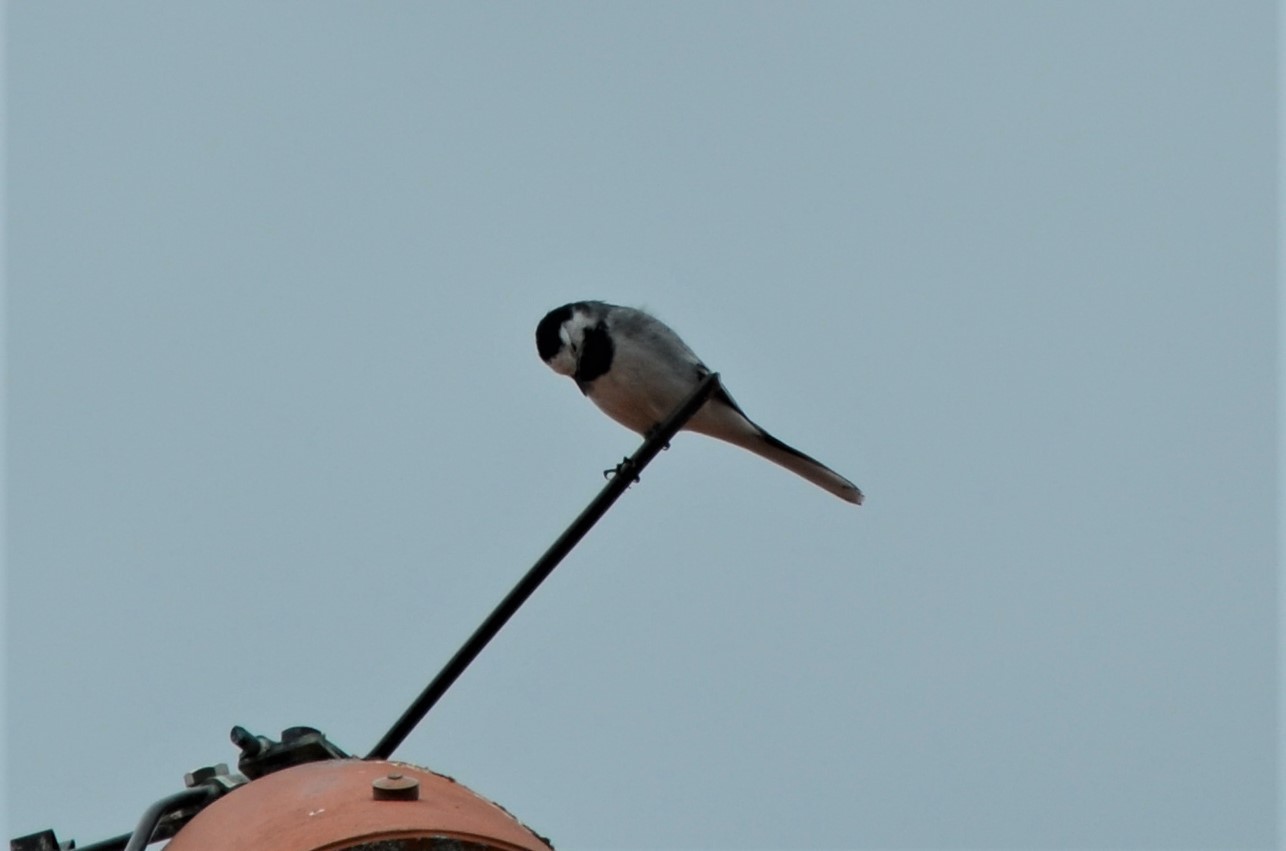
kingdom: Animalia
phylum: Chordata
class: Aves
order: Passeriformes
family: Motacillidae
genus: Motacilla
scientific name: Motacilla alba
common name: White wagtail
